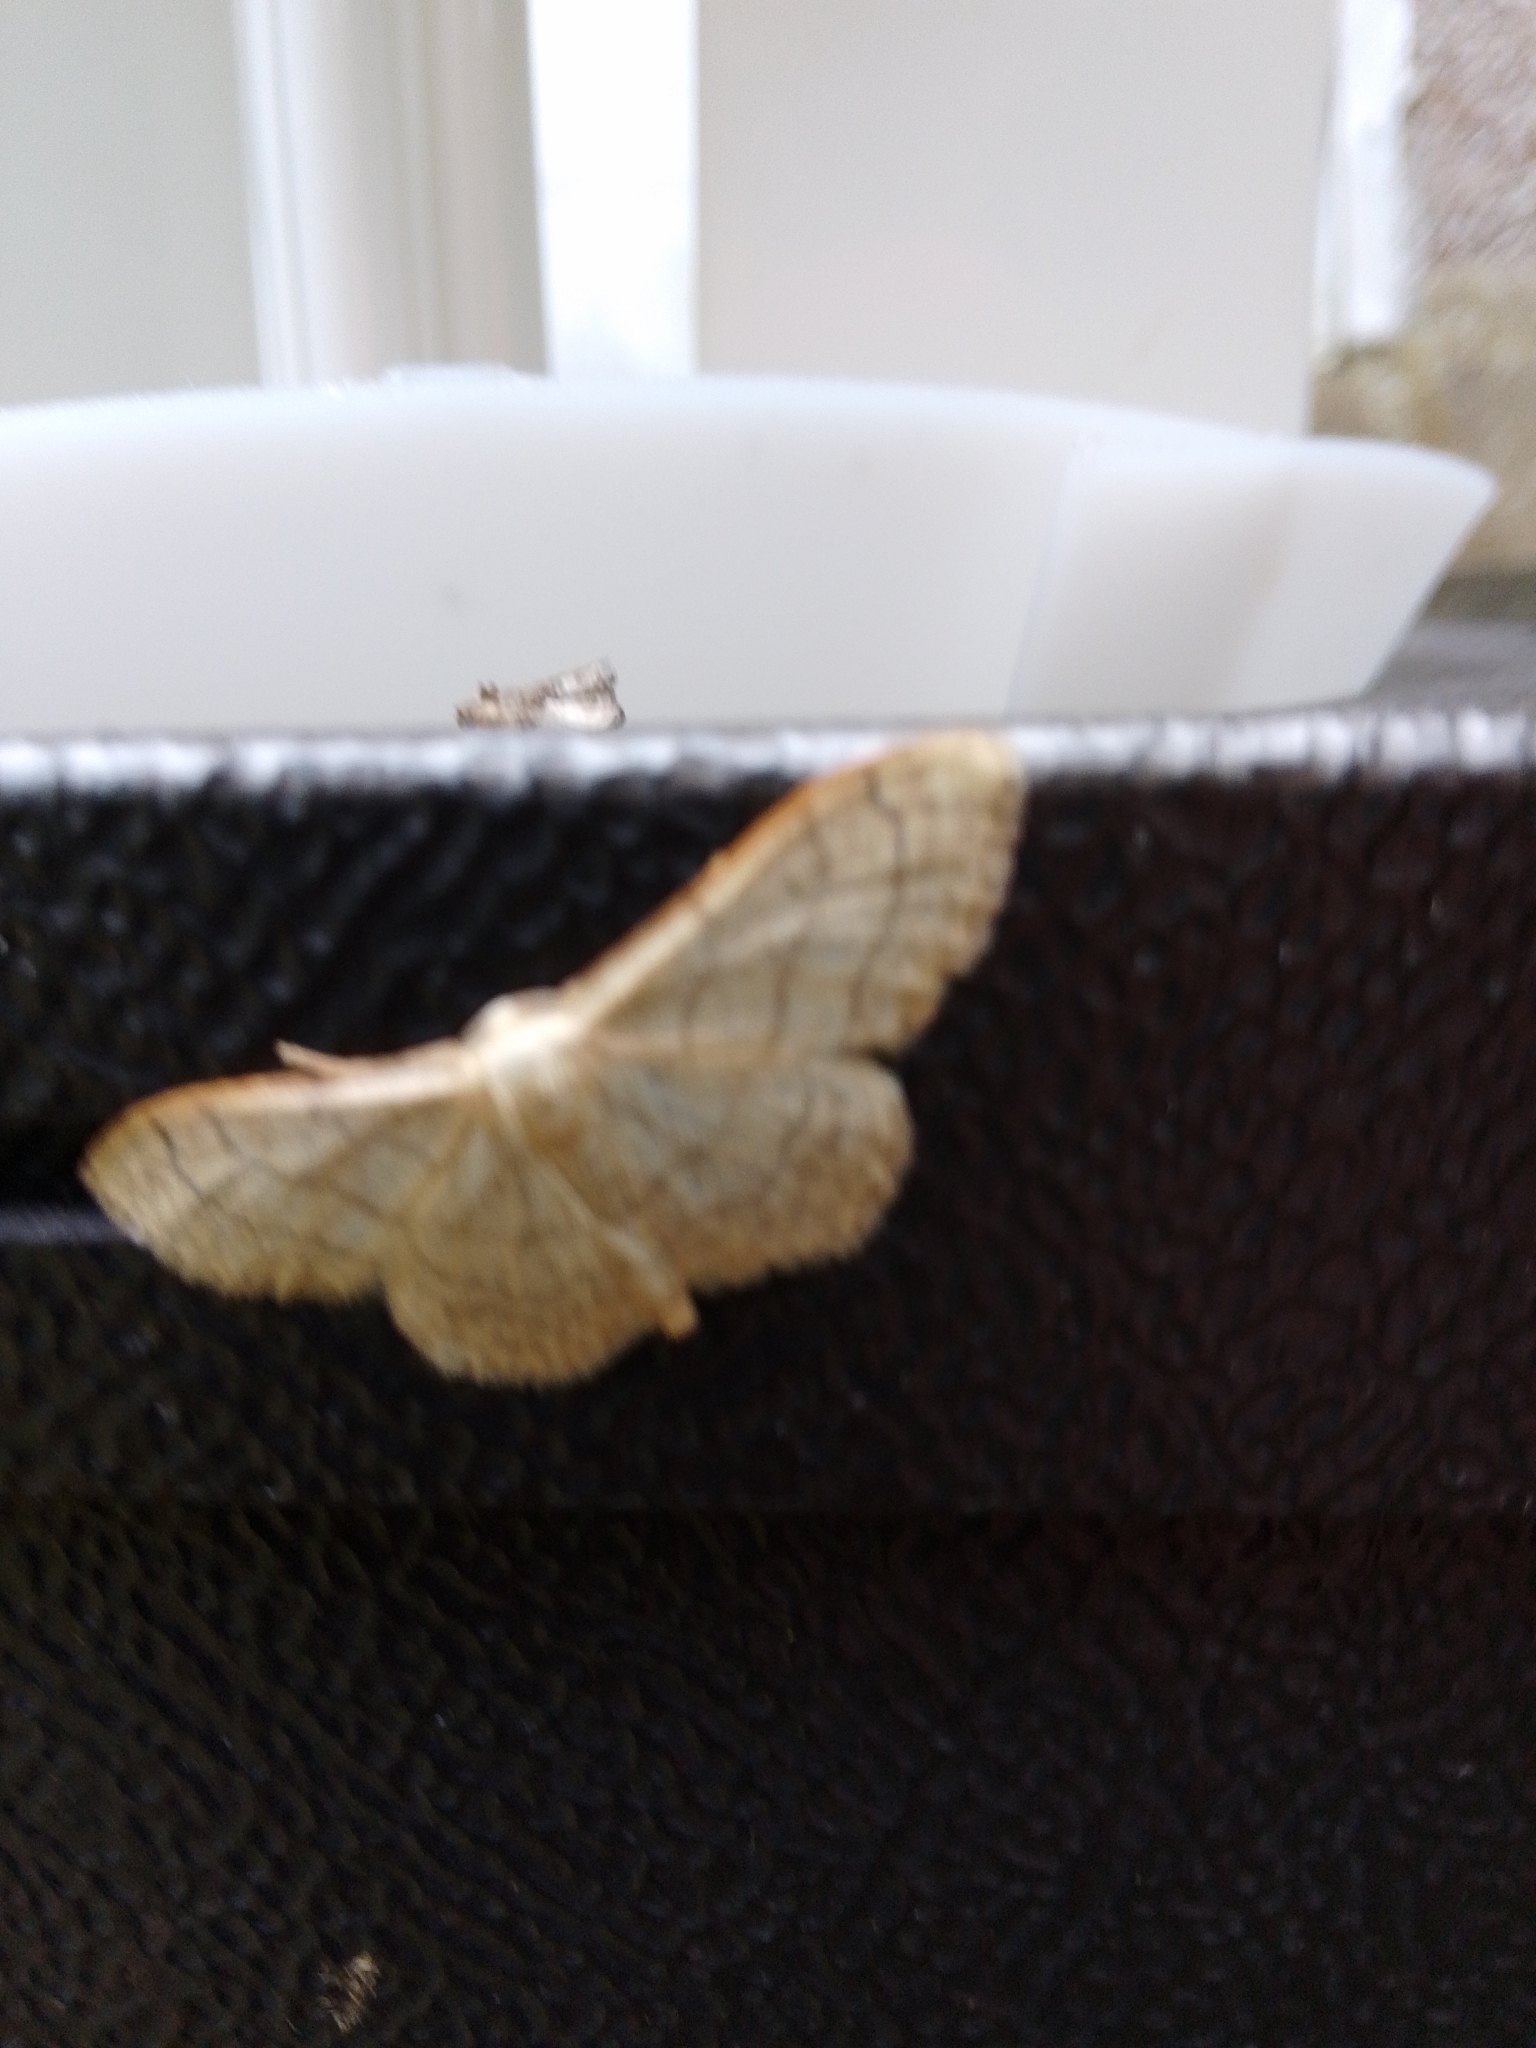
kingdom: Animalia
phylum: Arthropoda
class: Insecta
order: Lepidoptera
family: Geometridae
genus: Idaea
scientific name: Idaea aversata
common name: Riband wave
